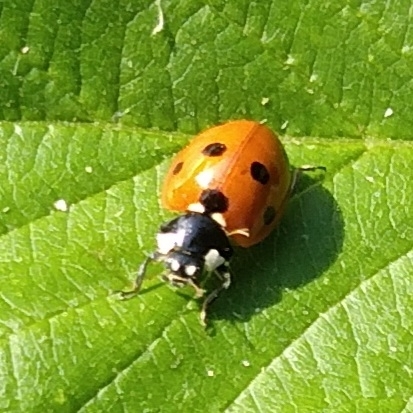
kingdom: Animalia
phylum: Arthropoda
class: Insecta
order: Coleoptera
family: Coccinellidae
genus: Coccinella
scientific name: Coccinella septempunctata
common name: Sevenspotted lady beetle
